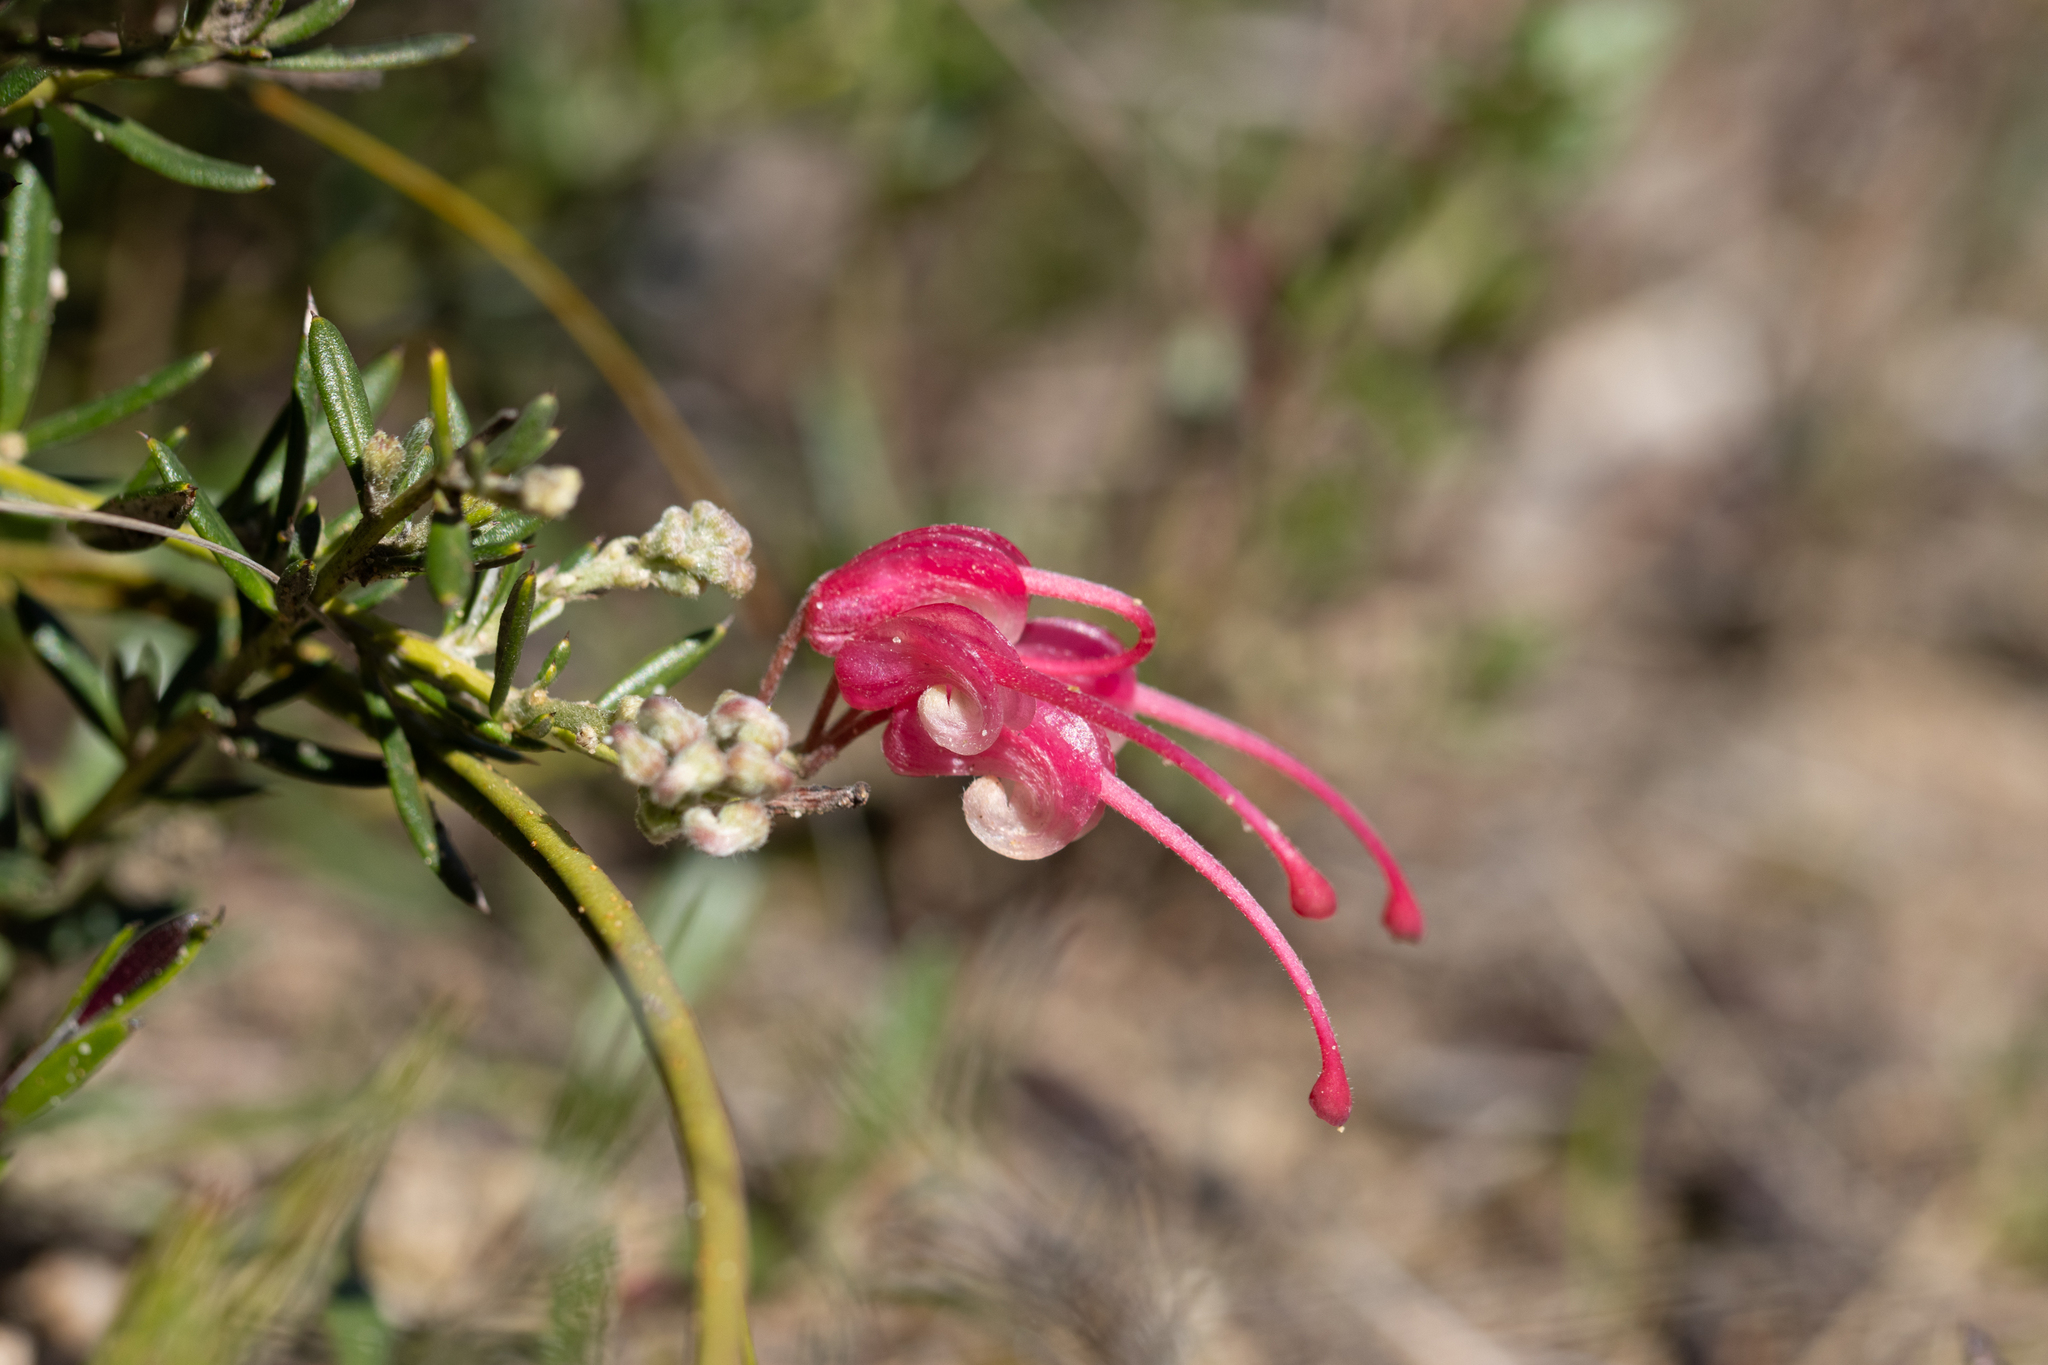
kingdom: Plantae
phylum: Tracheophyta
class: Magnoliopsida
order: Proteales
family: Proteaceae
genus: Grevillea
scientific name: Grevillea lavandulacea
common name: Lavender grevillea
